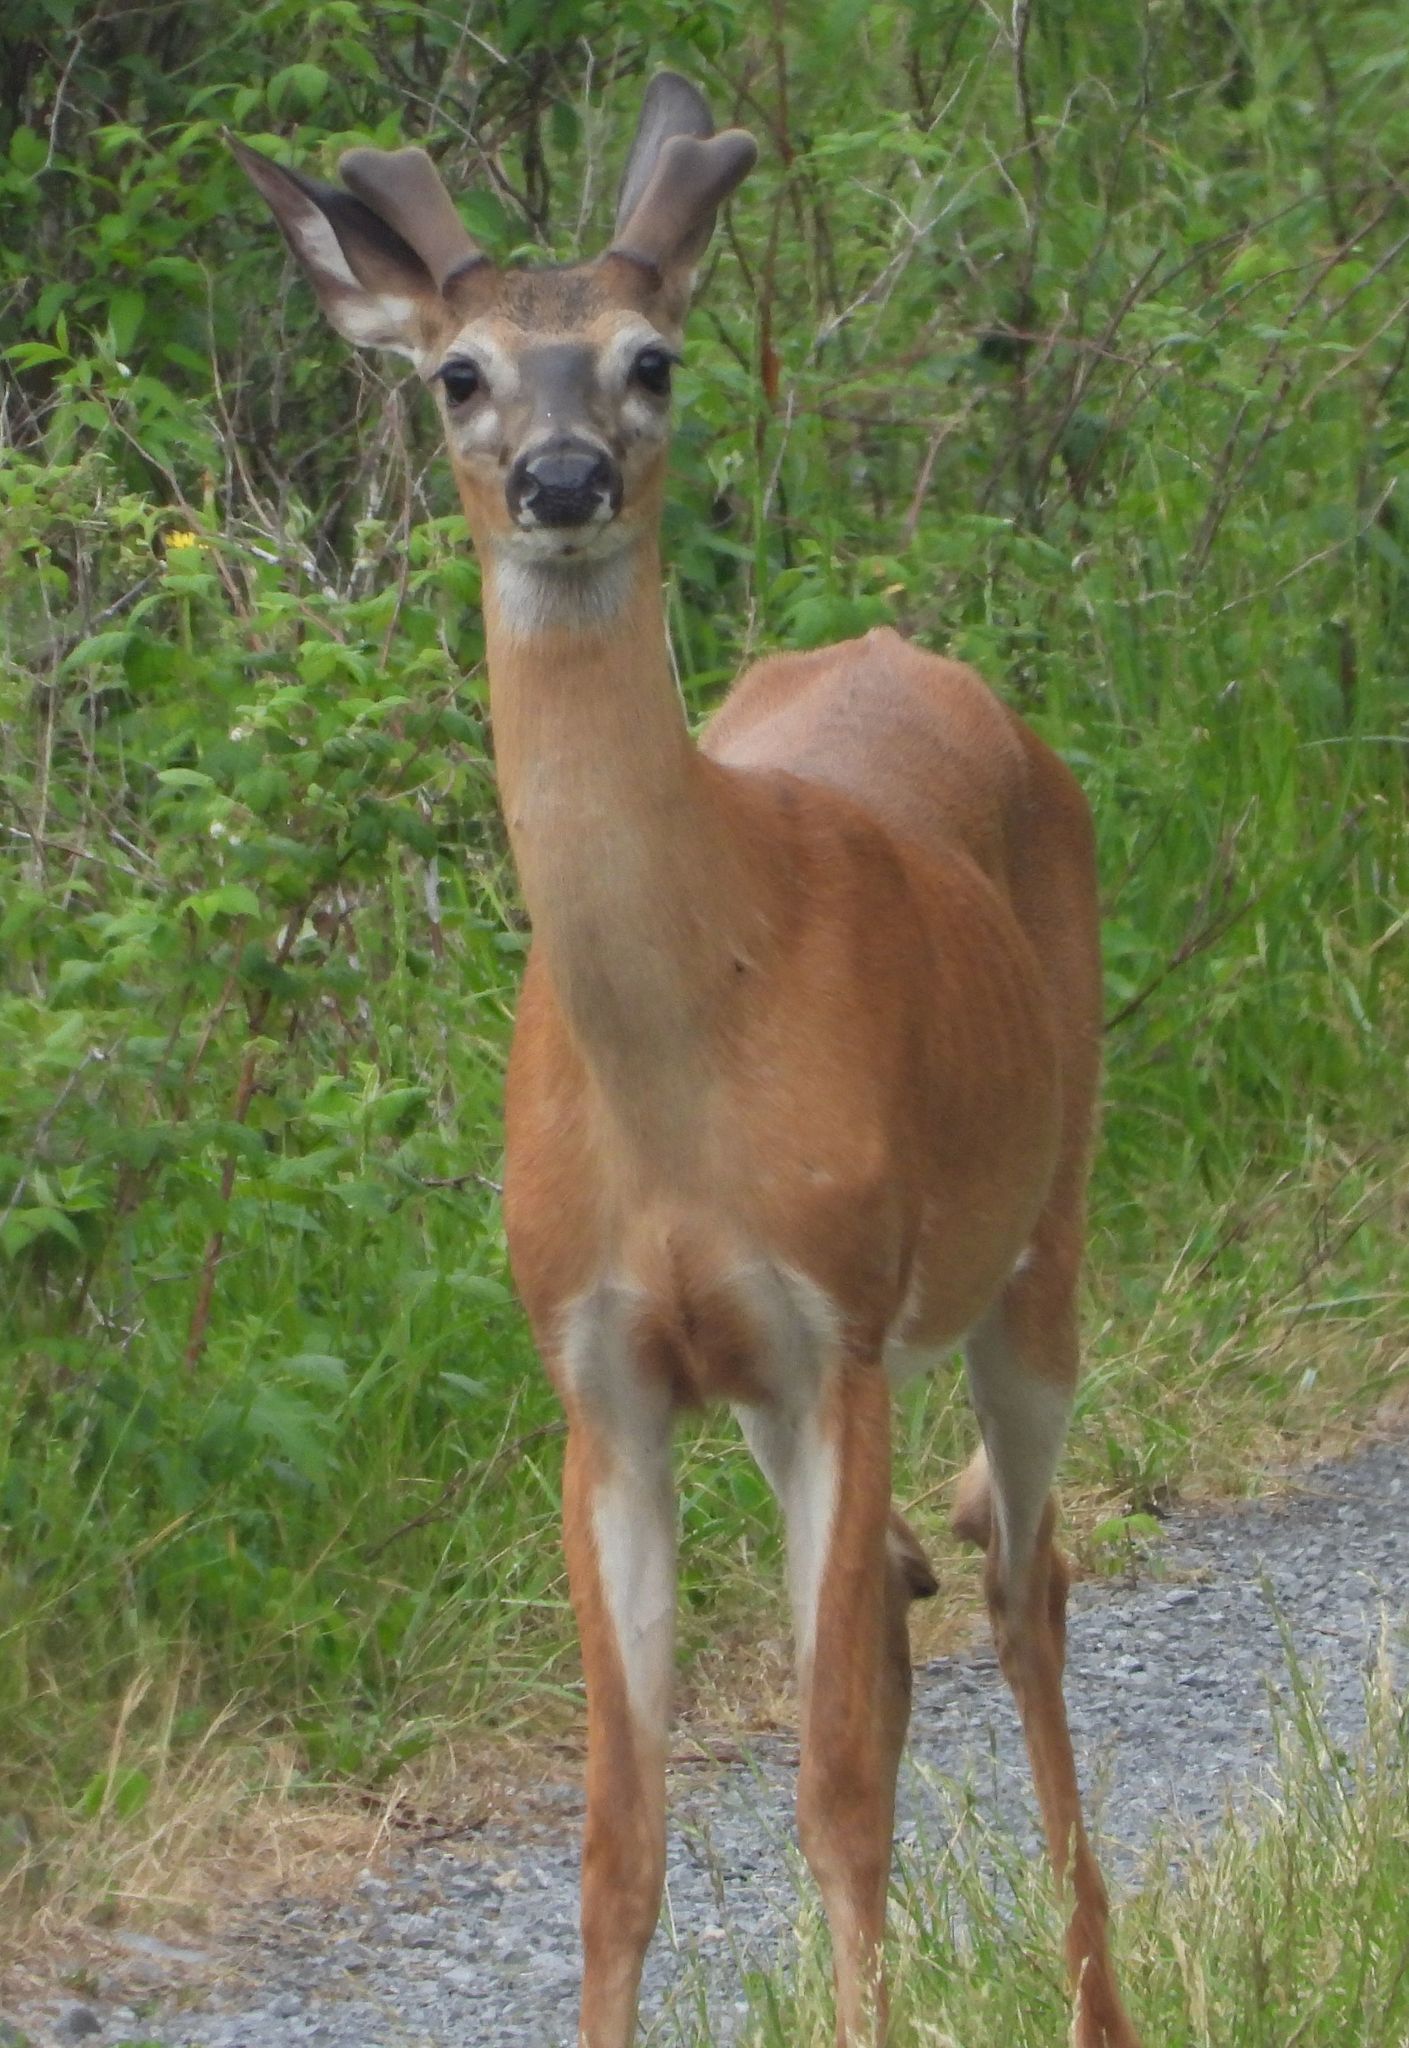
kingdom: Animalia
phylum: Chordata
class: Mammalia
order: Artiodactyla
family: Cervidae
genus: Odocoileus
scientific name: Odocoileus virginianus
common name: White-tailed deer
